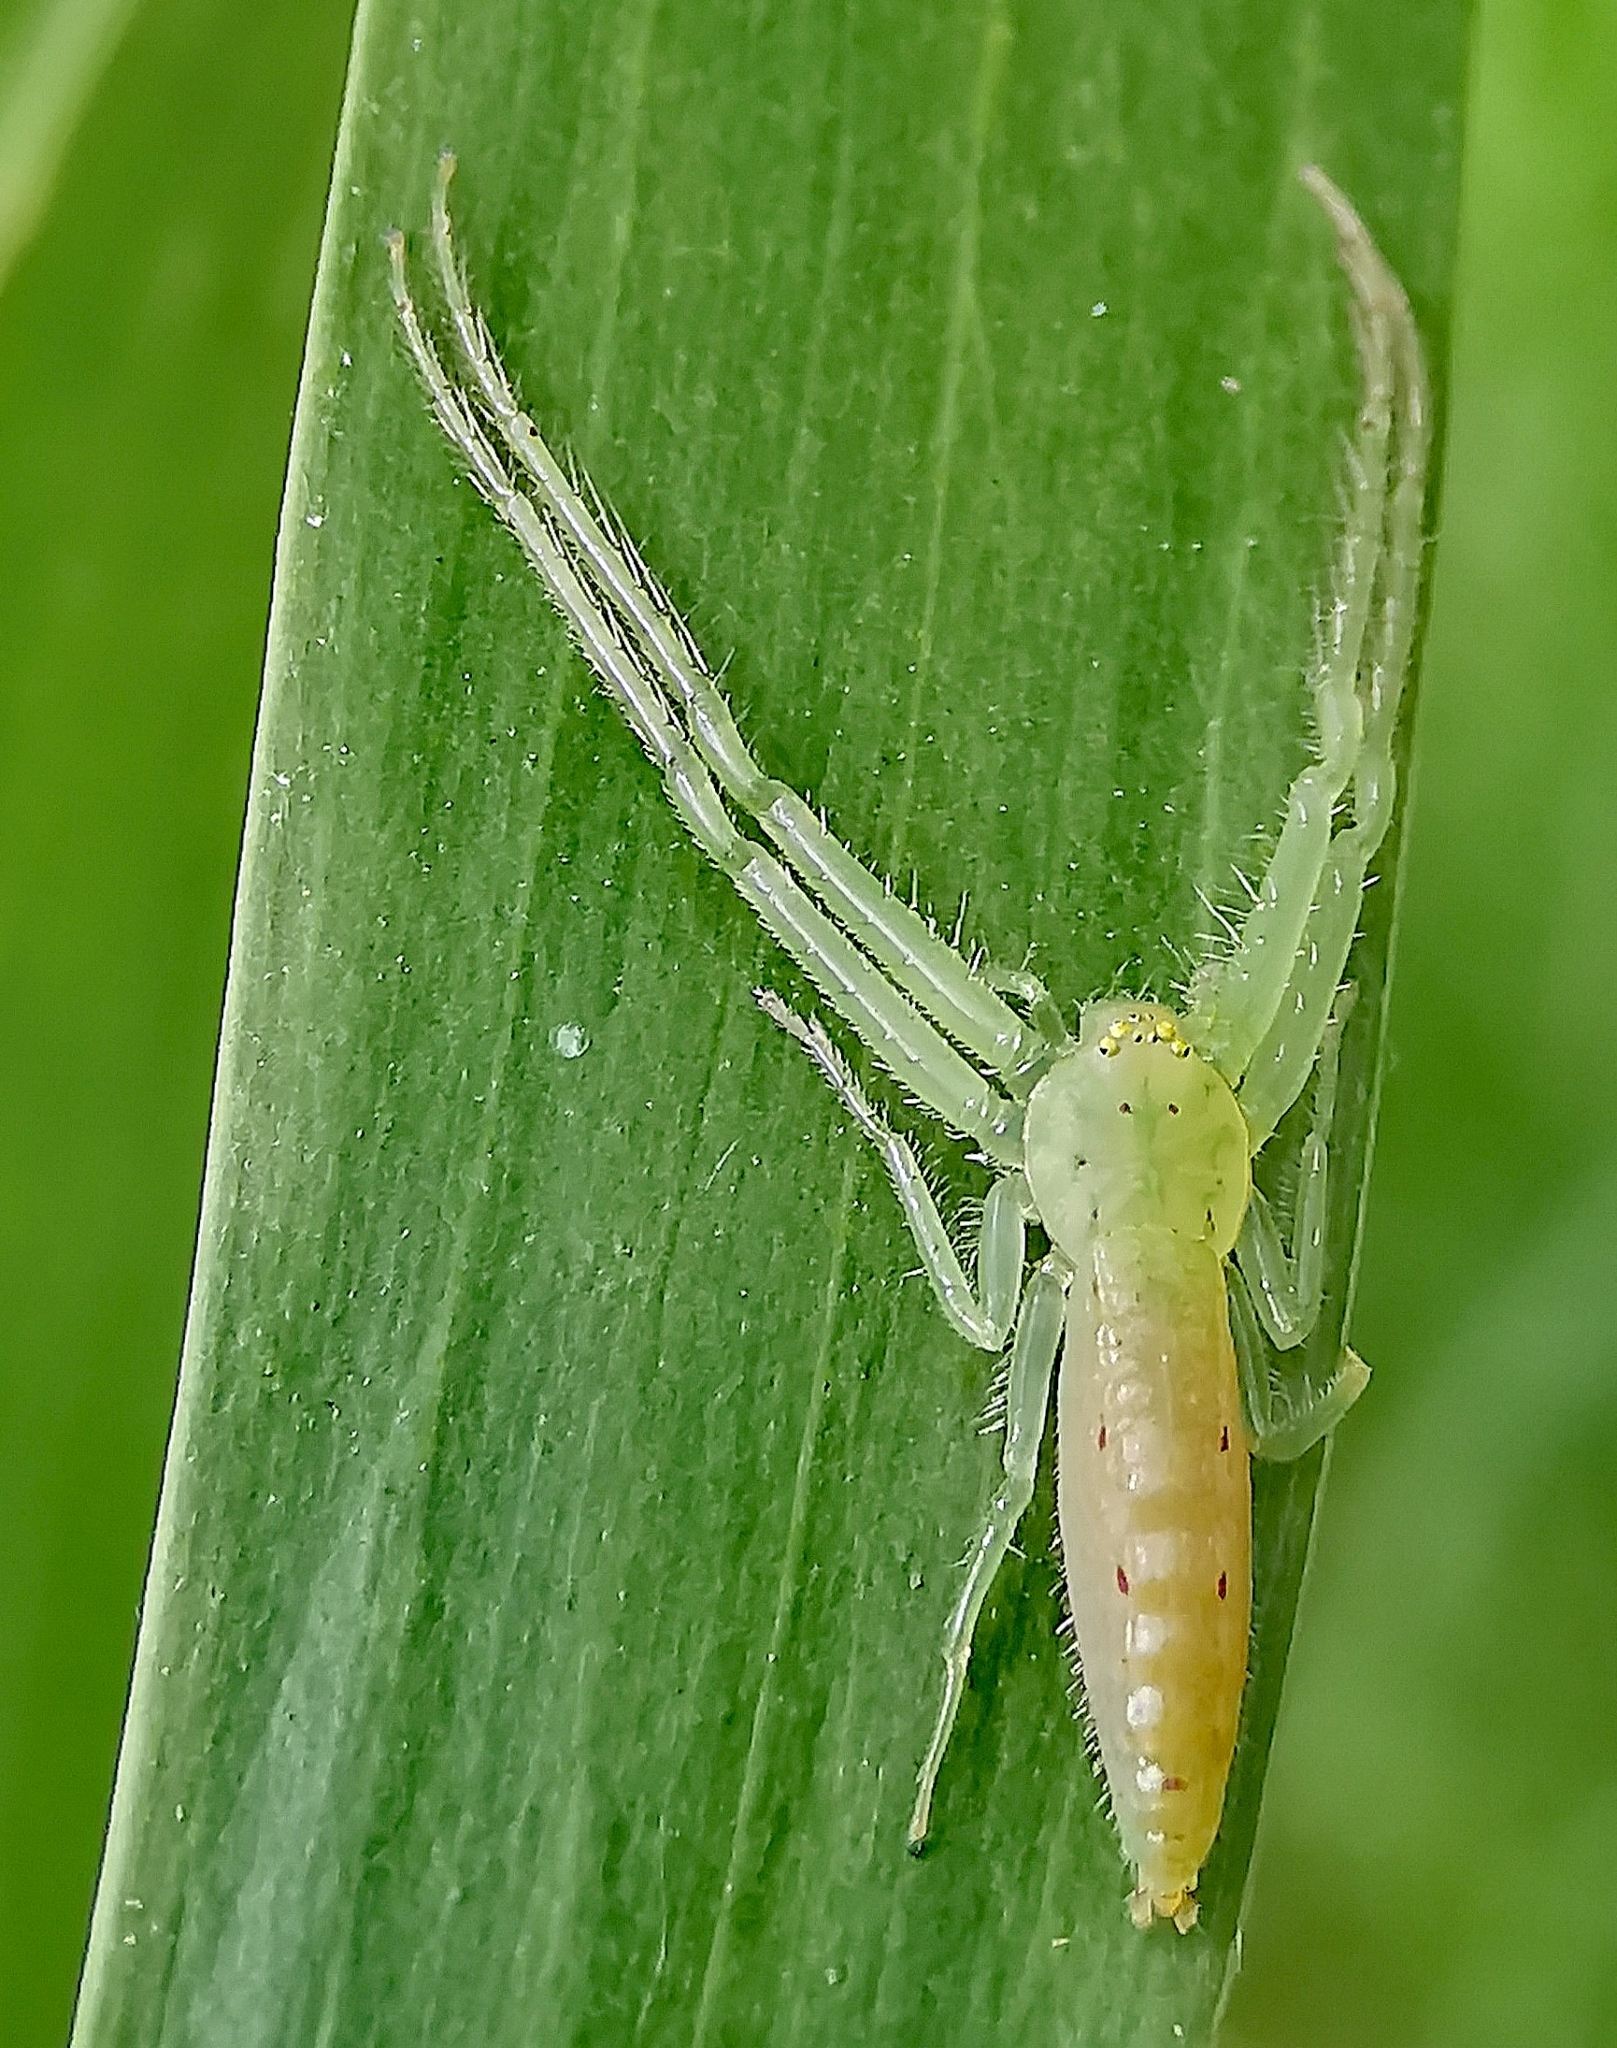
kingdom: Animalia
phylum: Arthropoda
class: Arachnida
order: Araneae
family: Thomisidae
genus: Oxytate
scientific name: Oxytate virens
